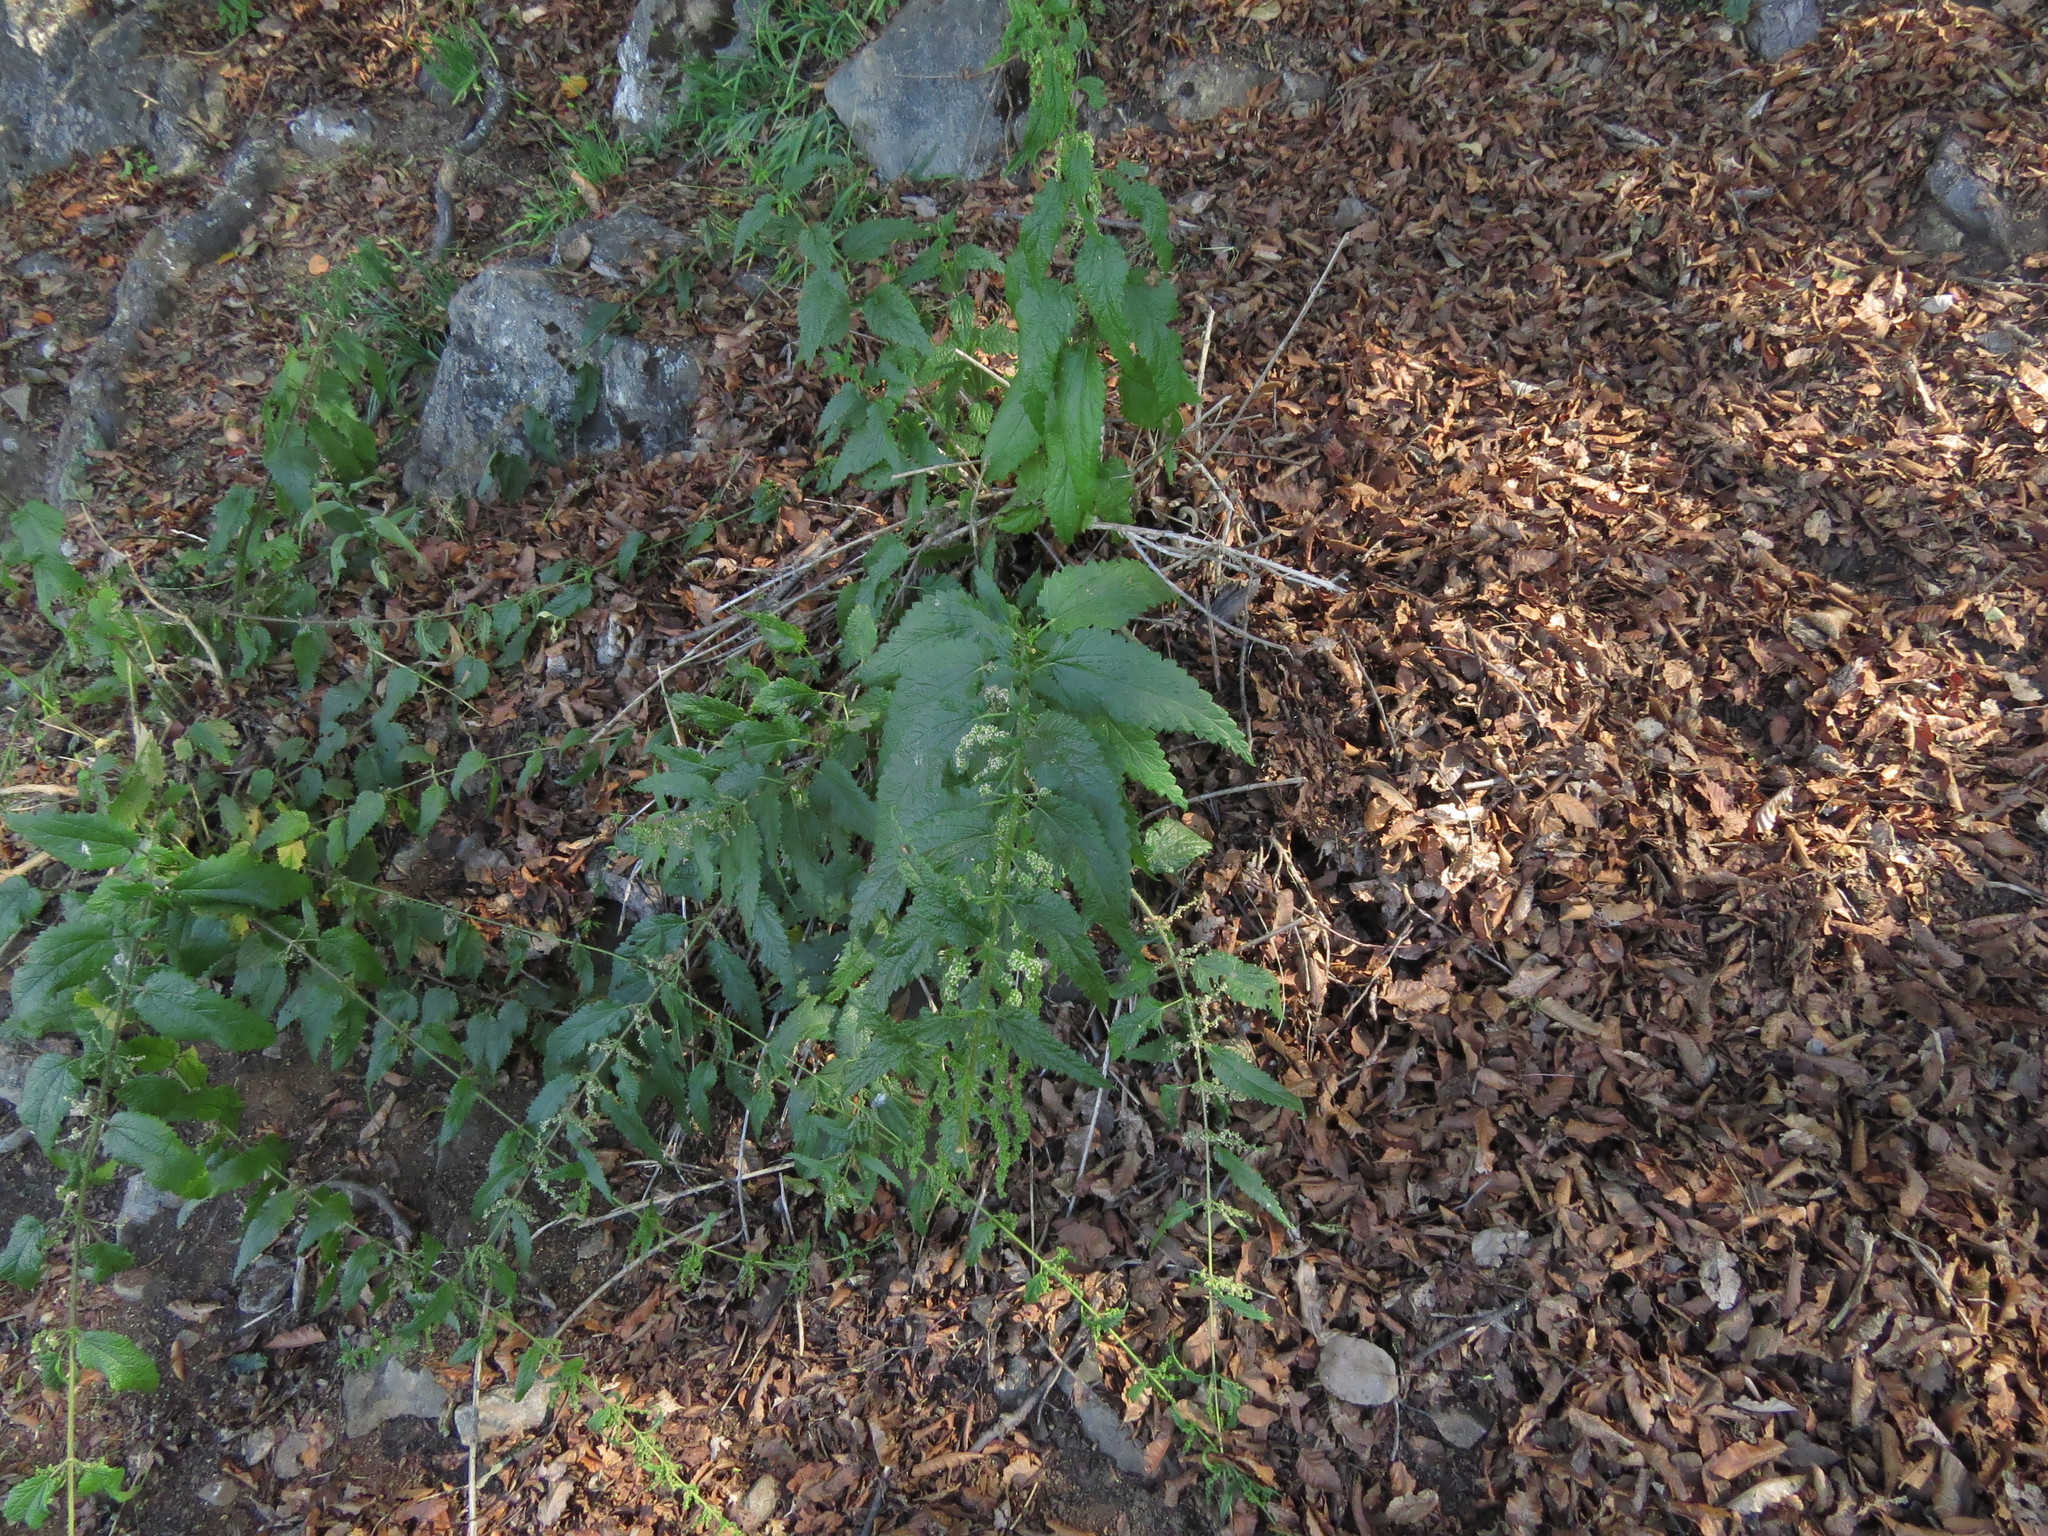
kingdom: Plantae
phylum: Tracheophyta
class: Magnoliopsida
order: Rosales
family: Urticaceae
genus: Urtica
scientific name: Urtica magellanica
